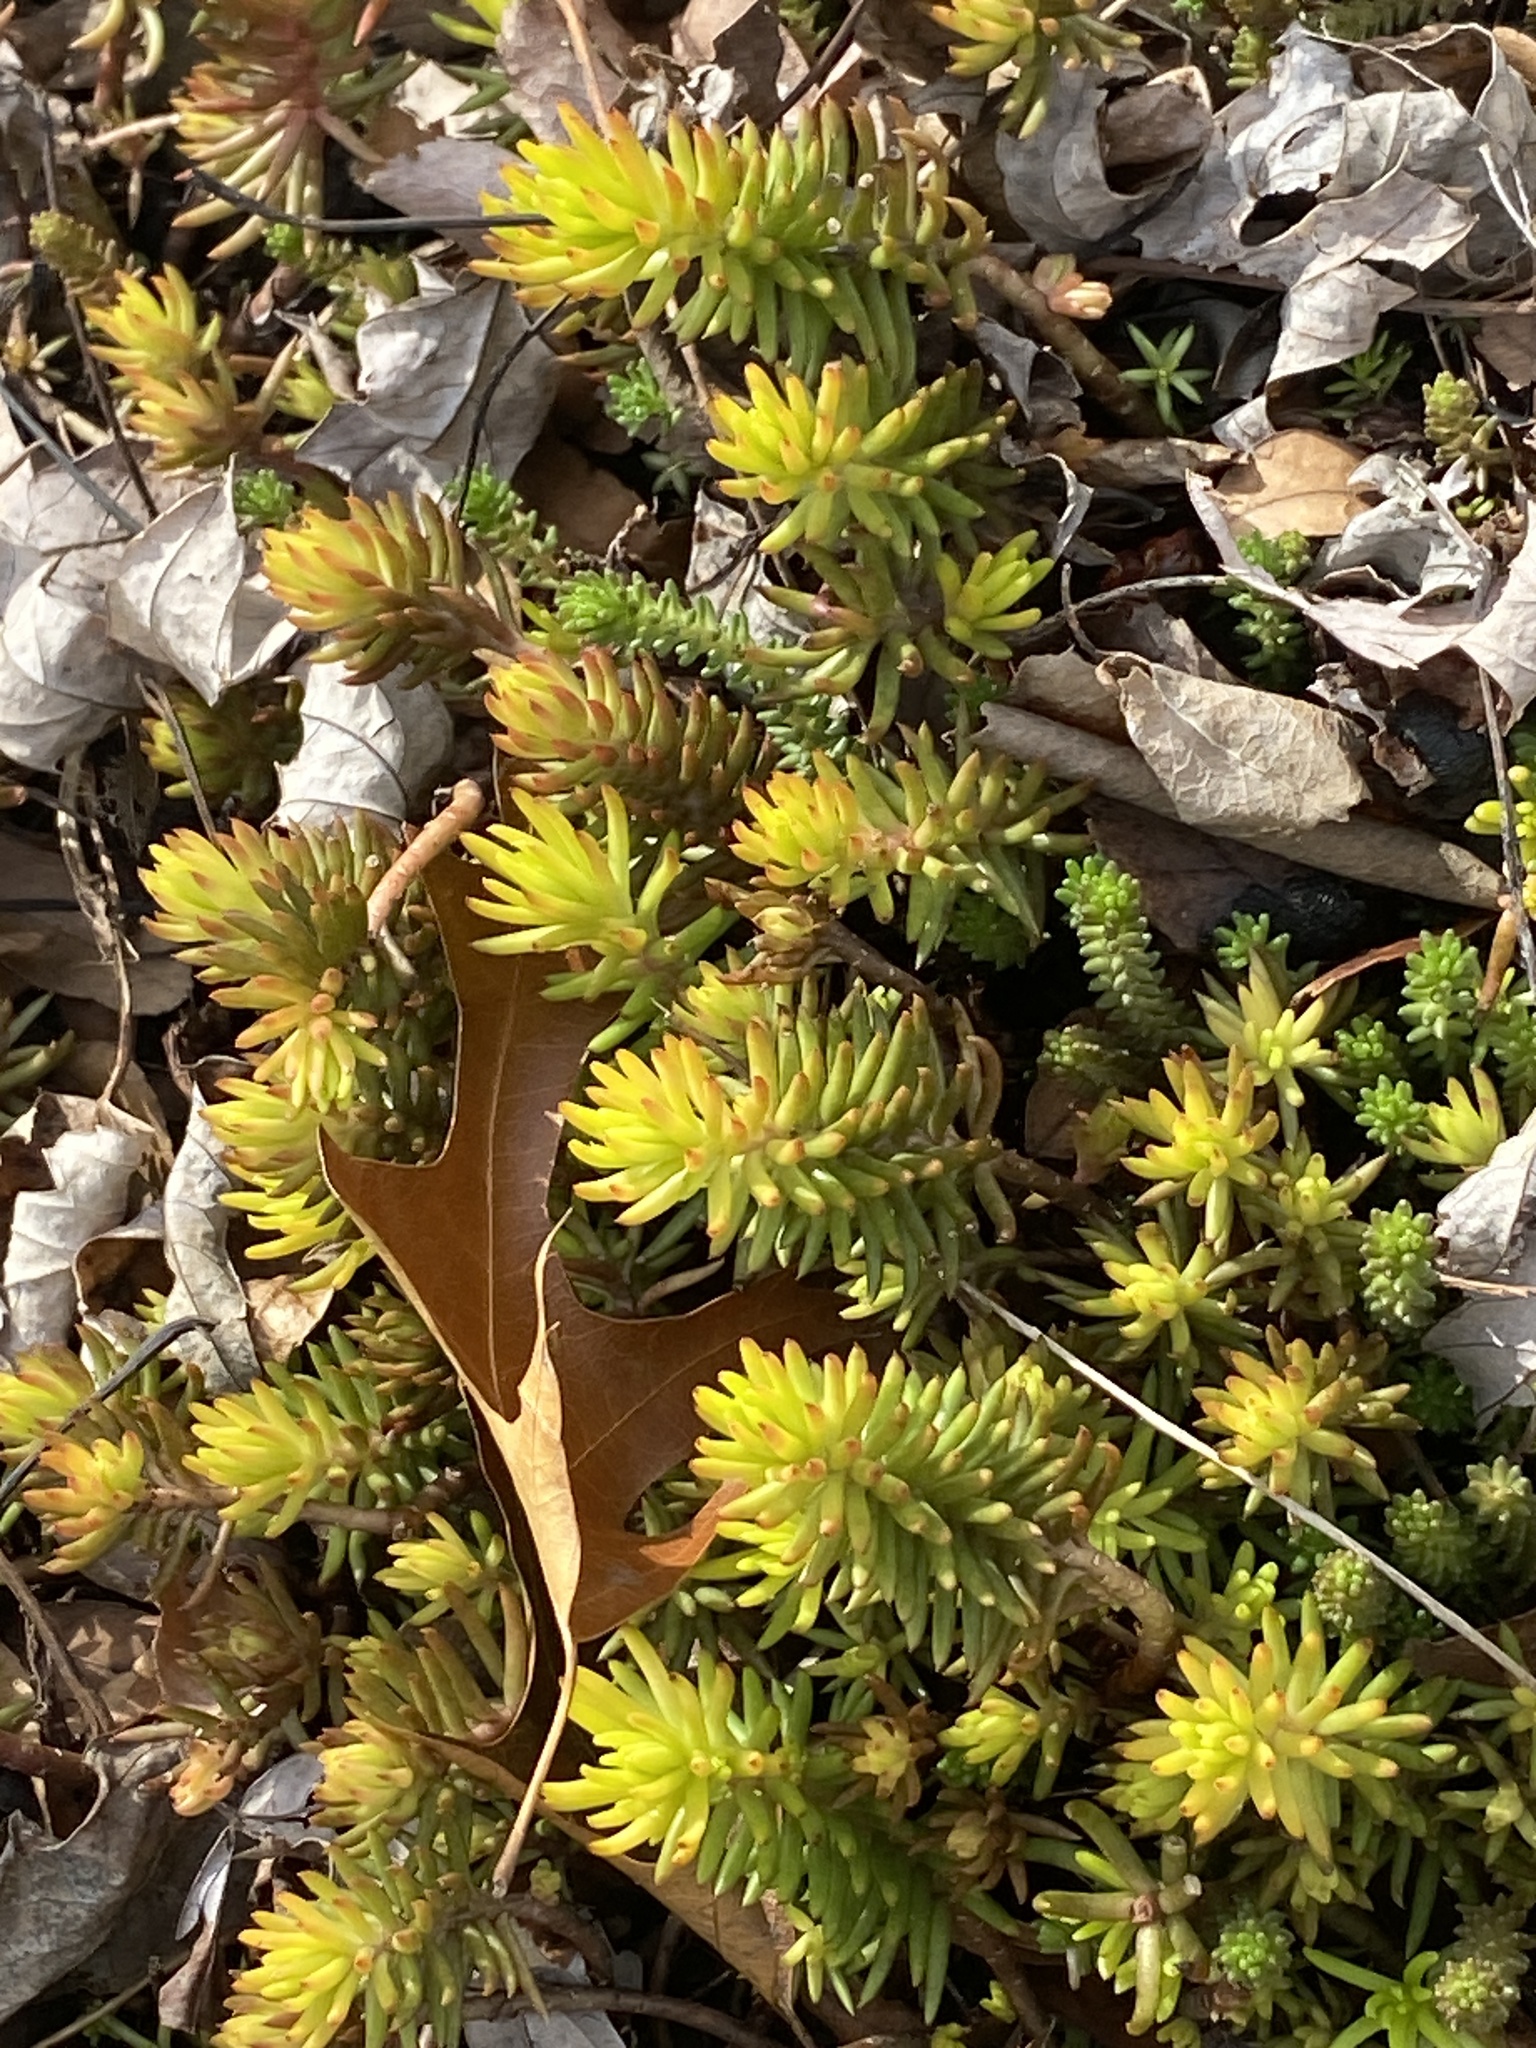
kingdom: Plantae
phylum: Tracheophyta
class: Magnoliopsida
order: Saxifragales
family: Crassulaceae
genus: Petrosedum
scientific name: Petrosedum rupestre
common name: Jenny's stonecrop
